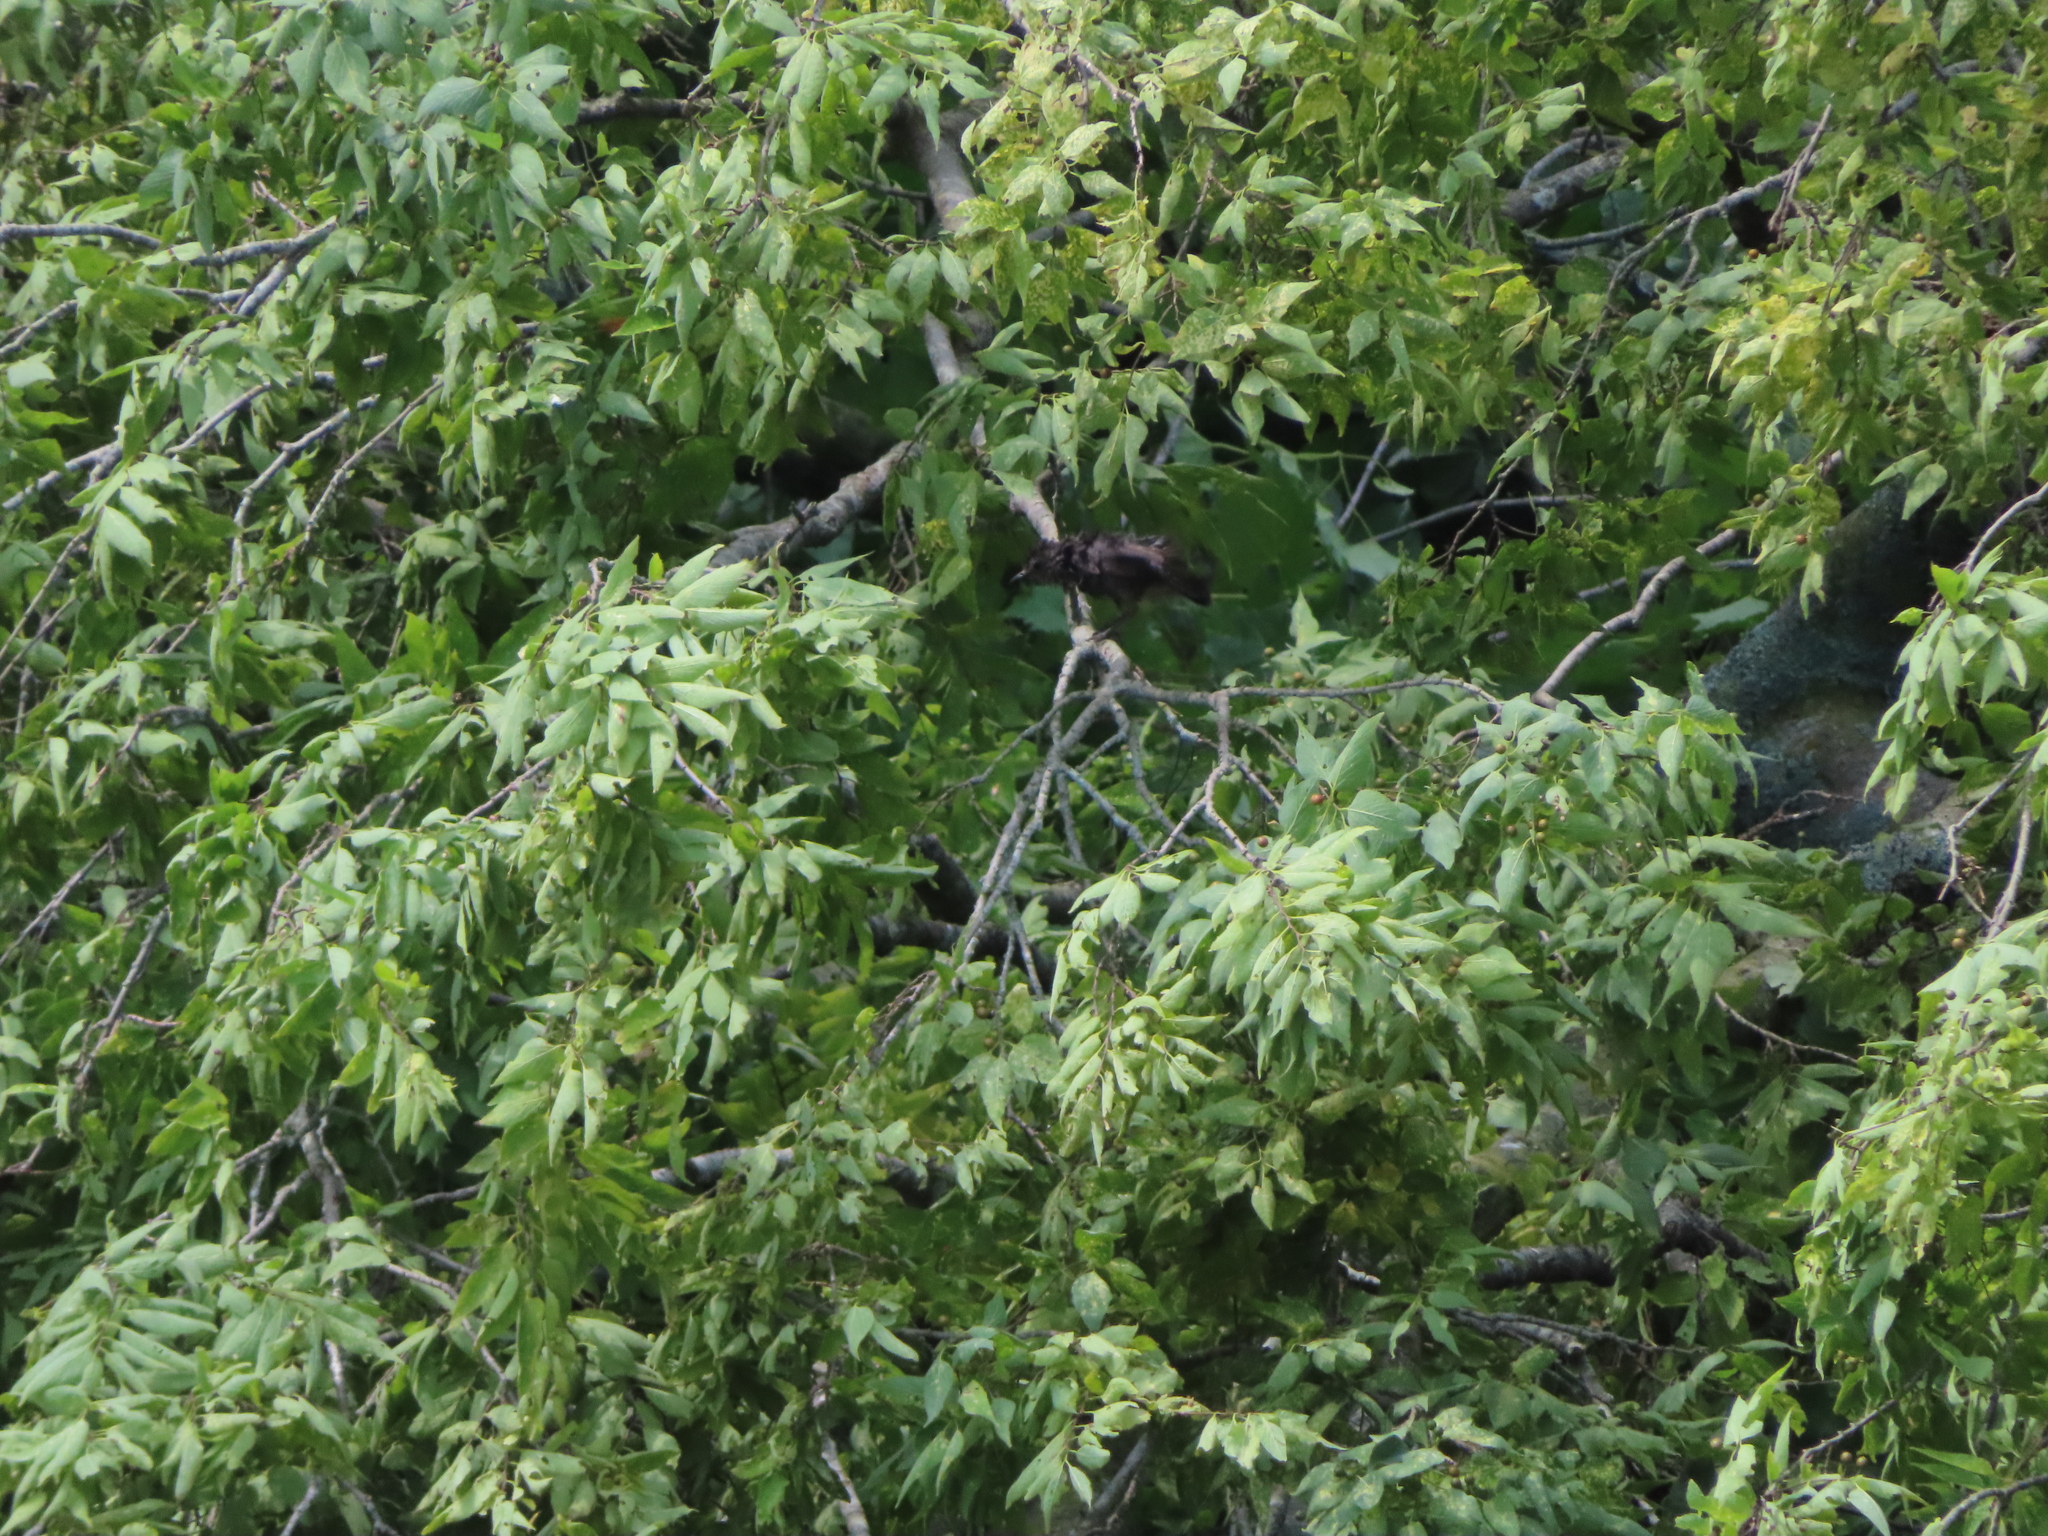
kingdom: Animalia
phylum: Chordata
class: Aves
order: Passeriformes
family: Mimidae
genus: Dumetella
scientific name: Dumetella carolinensis
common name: Gray catbird
